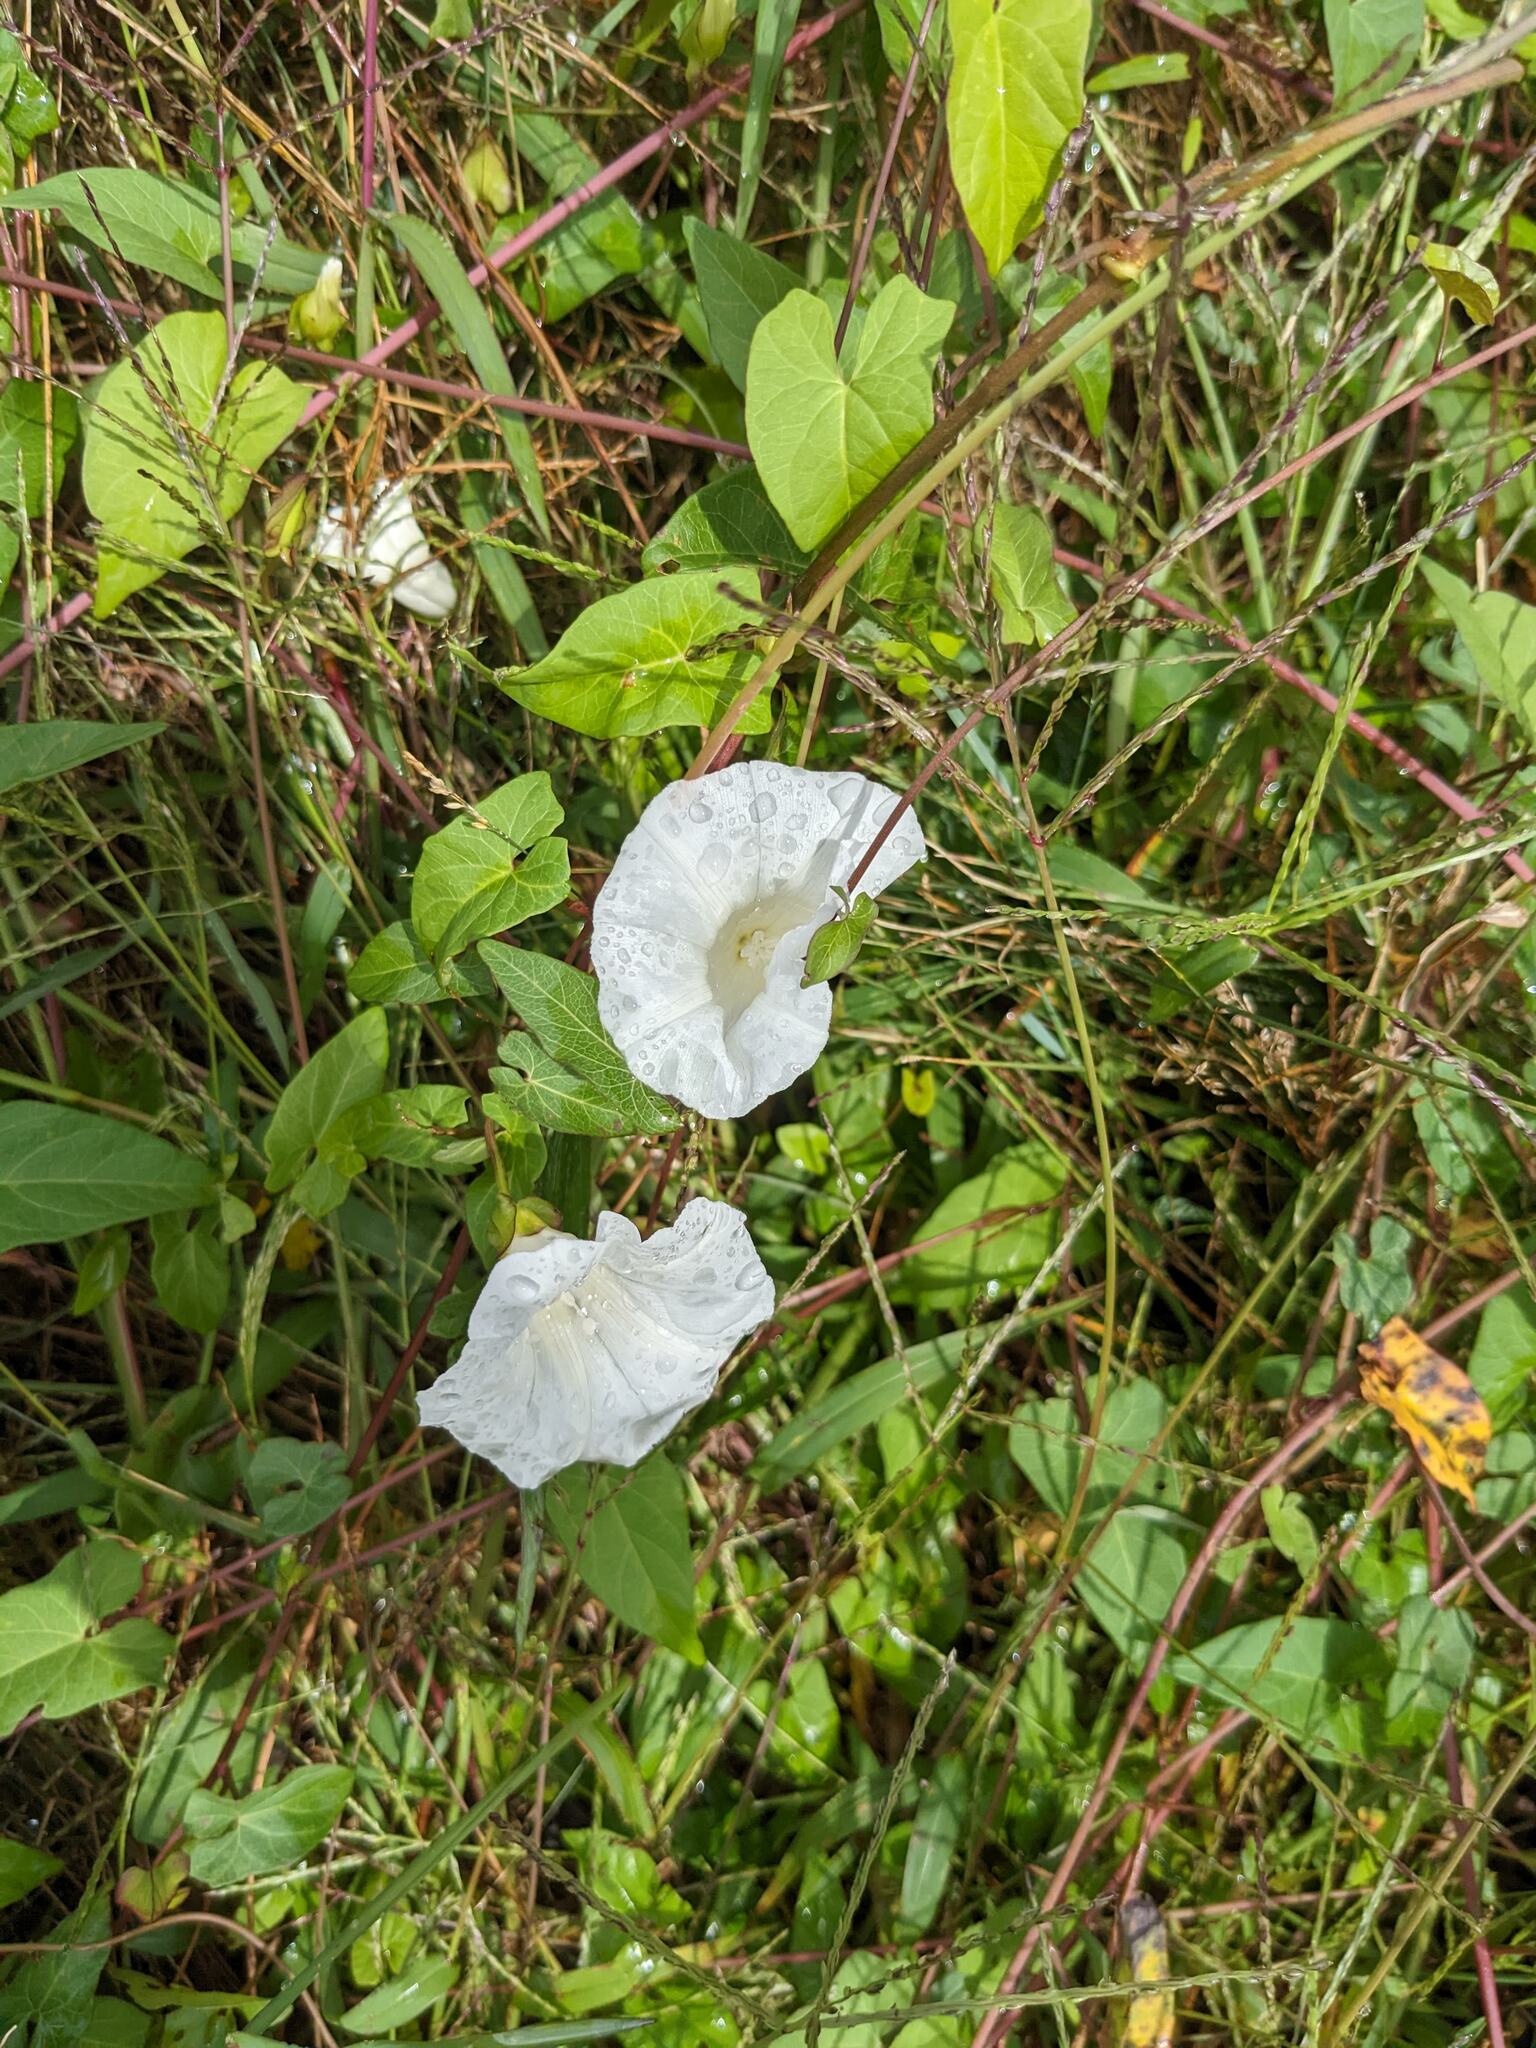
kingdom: Plantae
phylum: Tracheophyta
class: Magnoliopsida
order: Solanales
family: Convolvulaceae
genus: Calystegia
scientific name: Calystegia sepium
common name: Hedge bindweed
